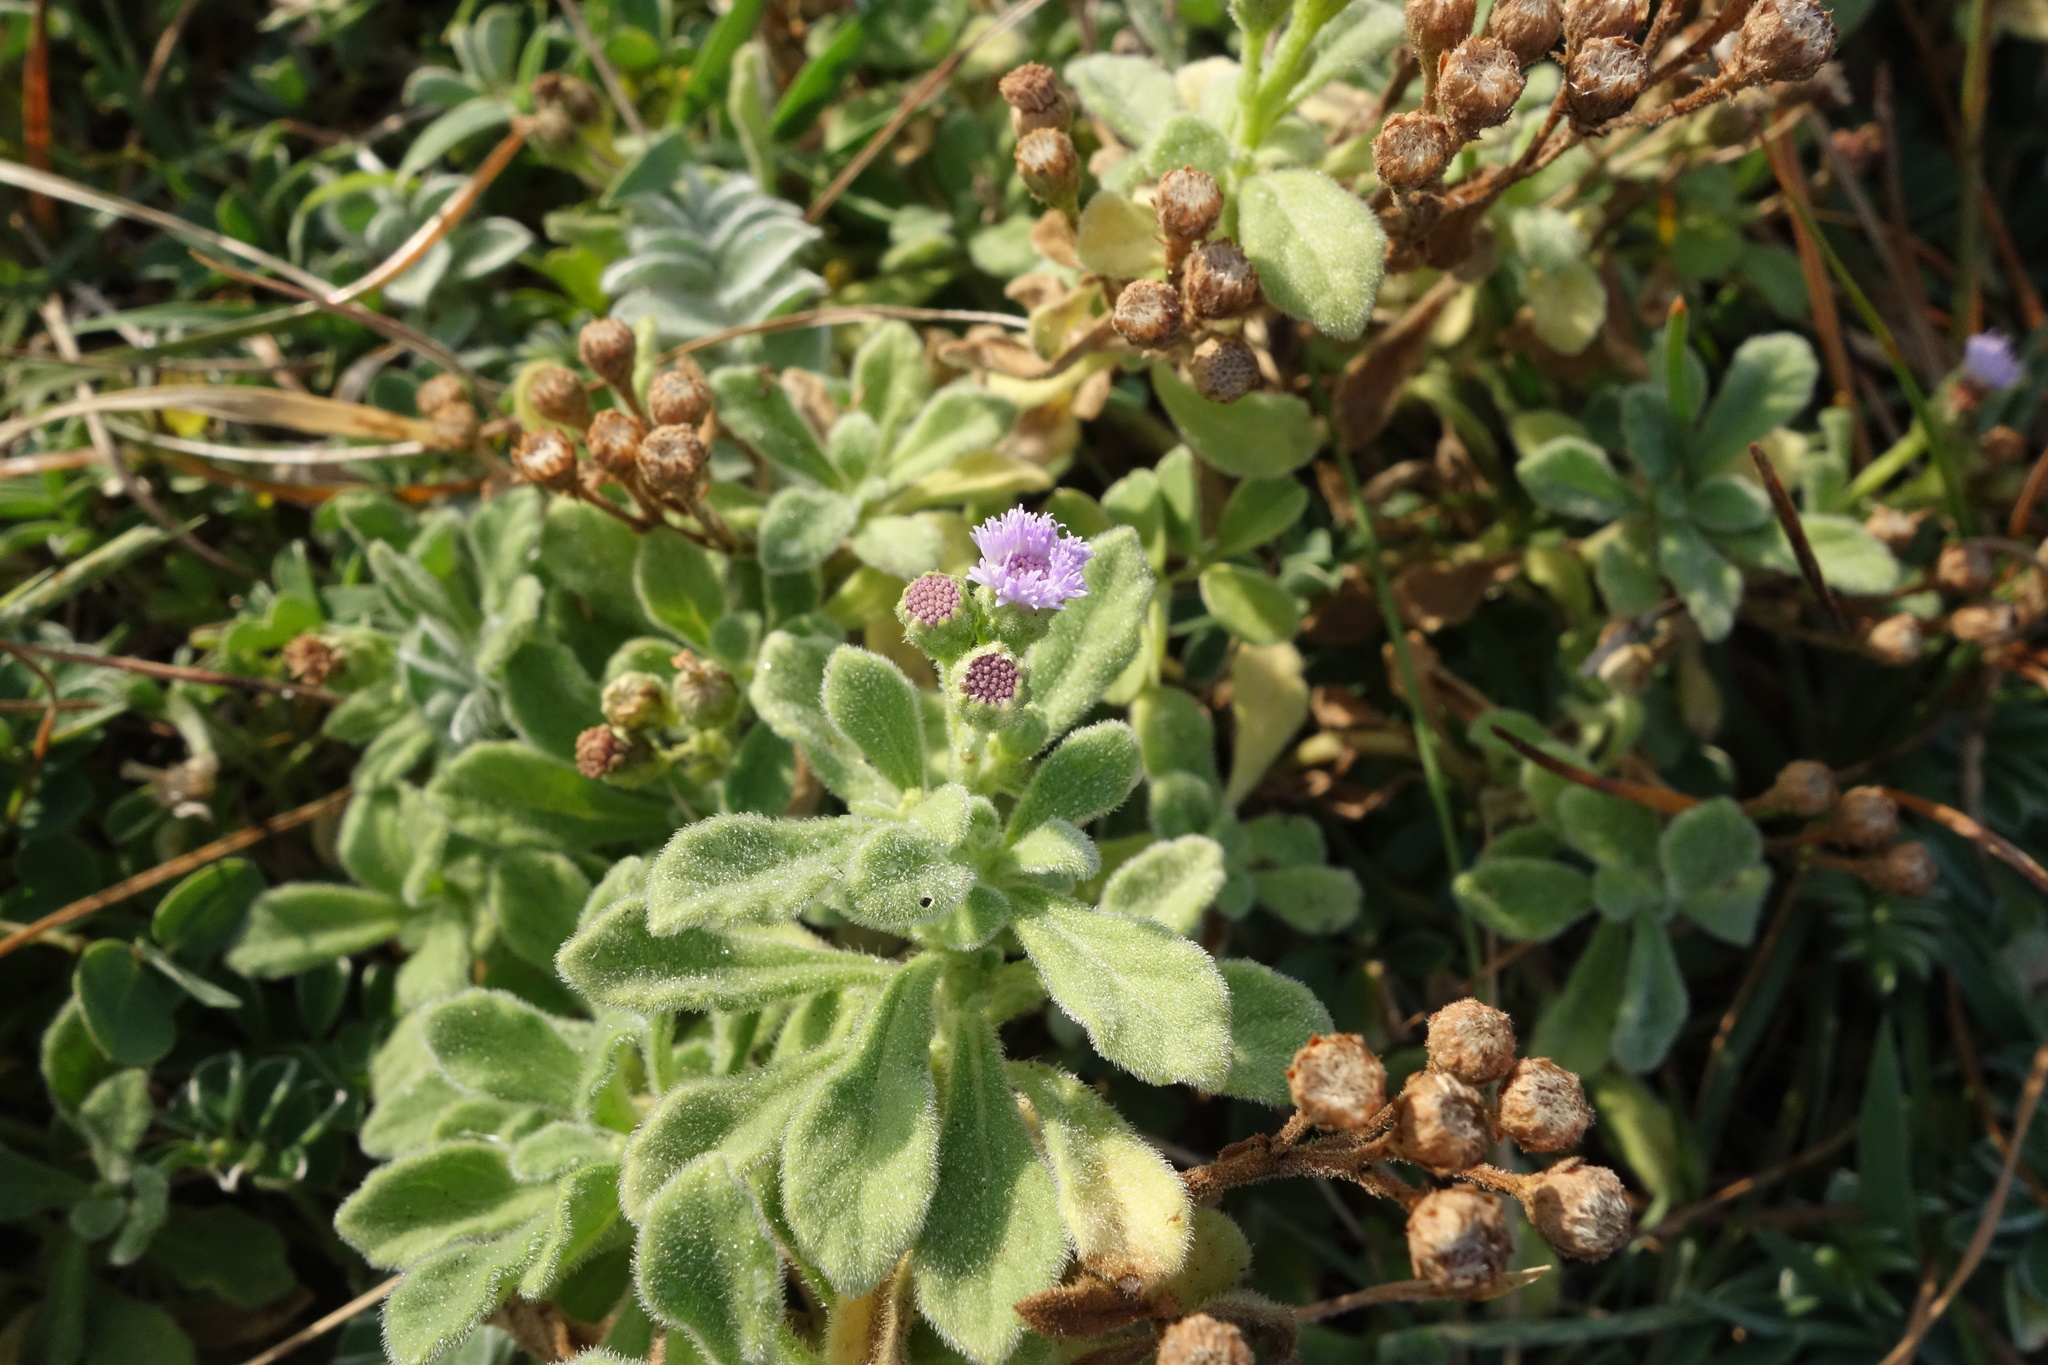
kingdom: Plantae
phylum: Tracheophyta
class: Magnoliopsida
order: Asterales
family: Asteraceae
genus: Cyanthillium
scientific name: Cyanthillium maritimum
